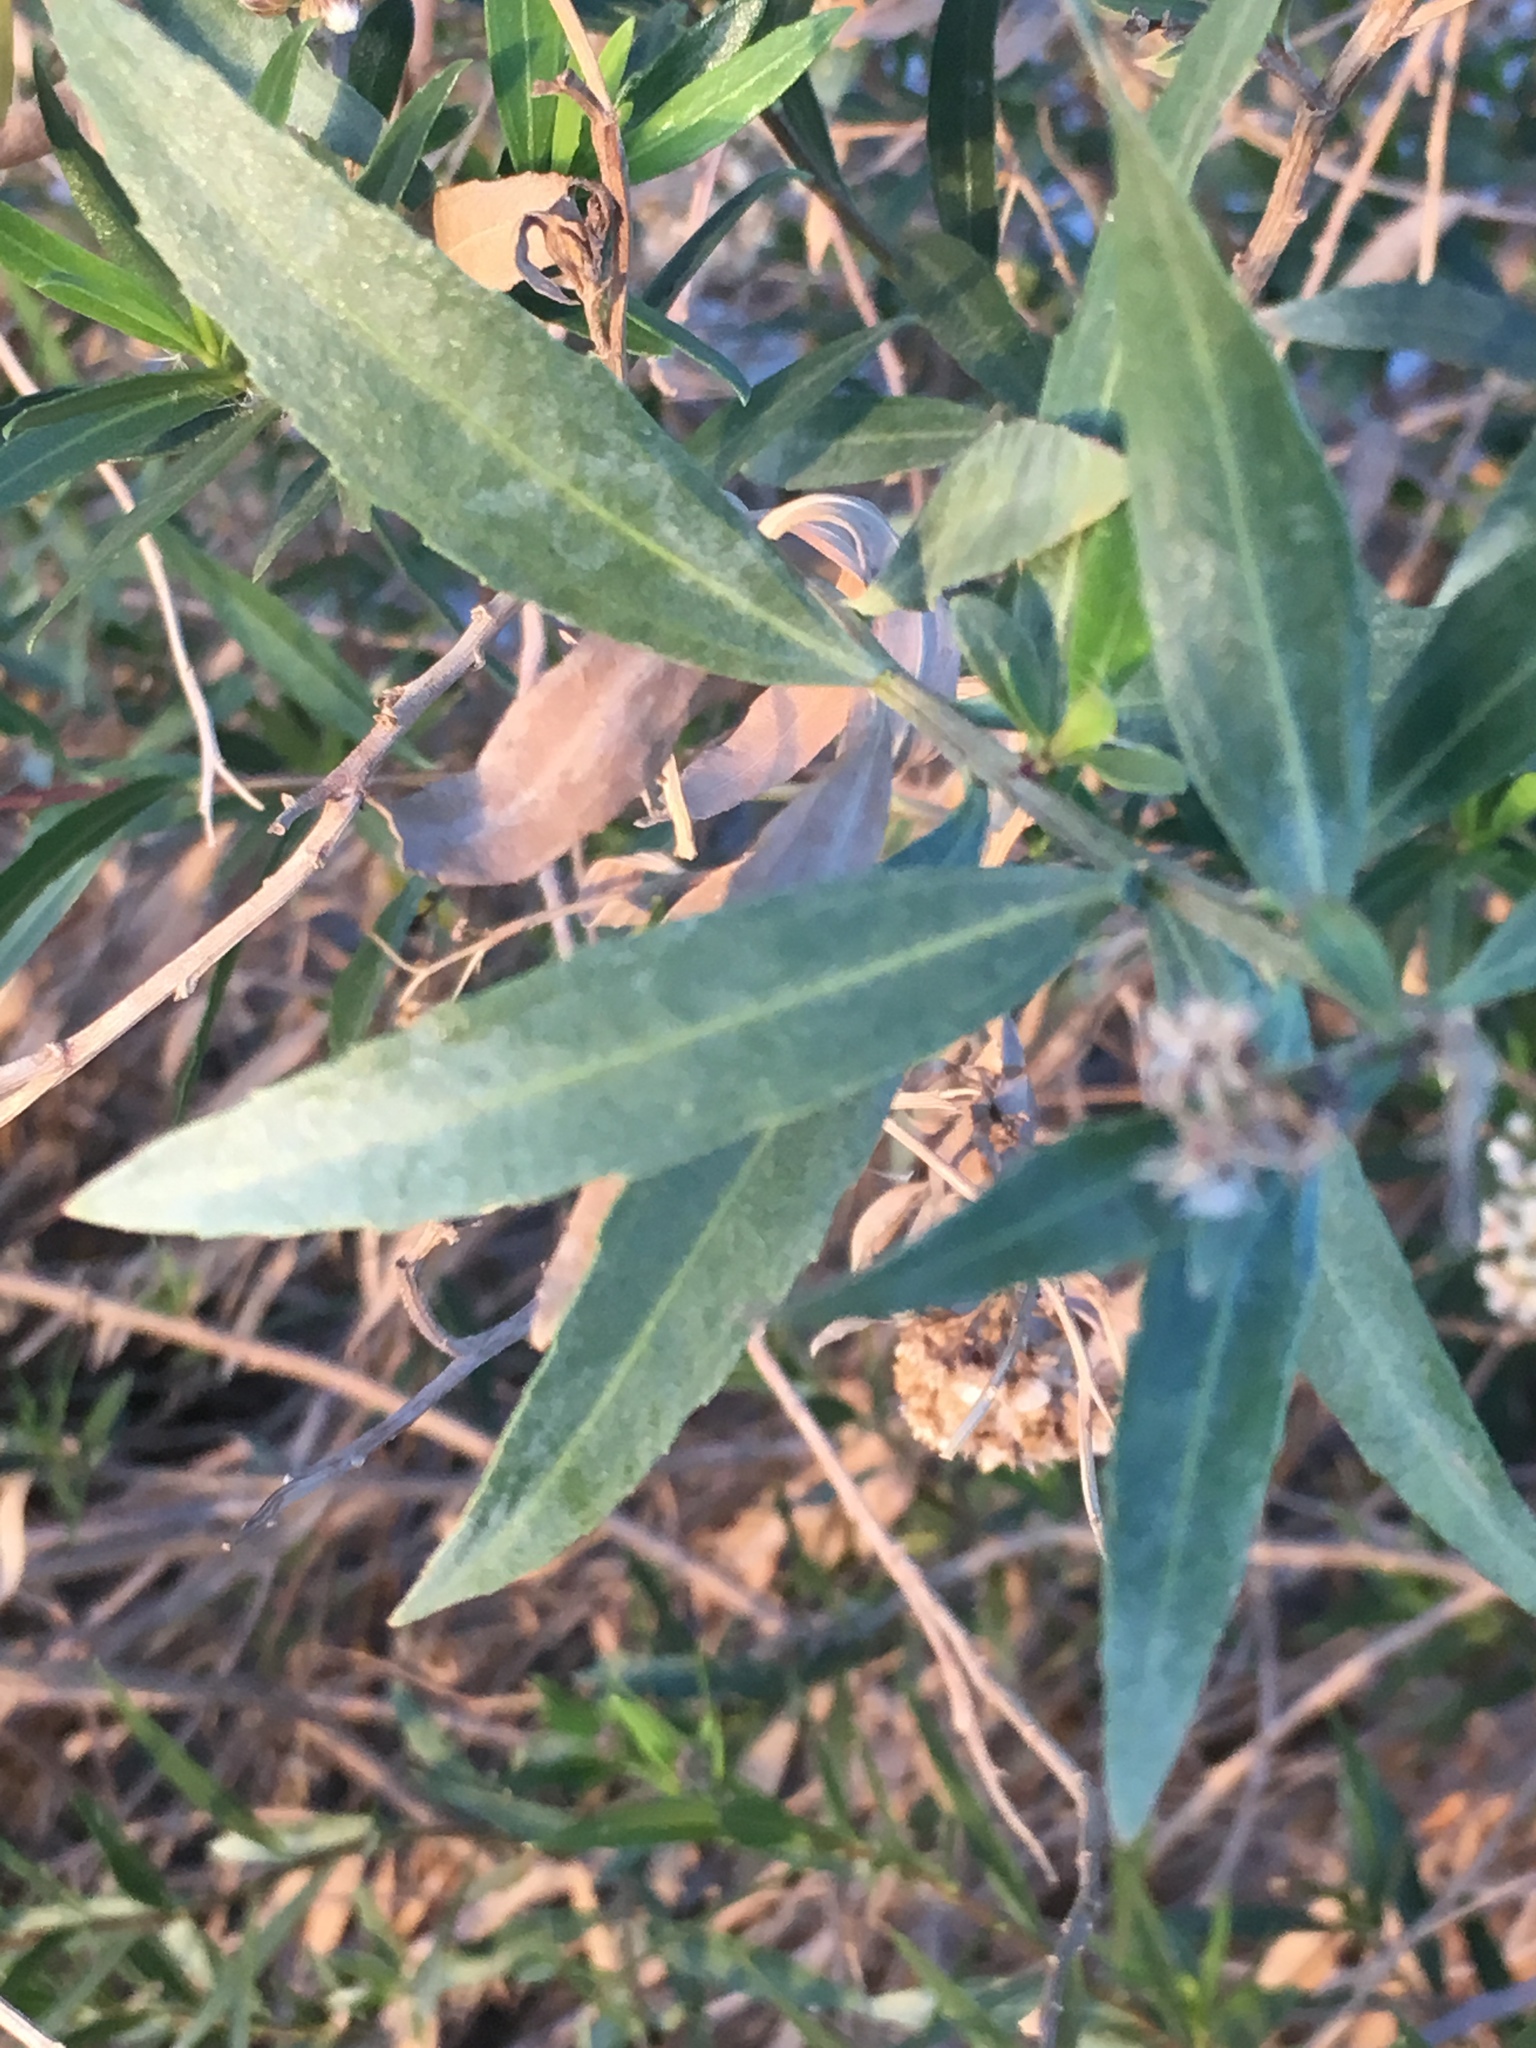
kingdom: Plantae
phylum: Tracheophyta
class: Magnoliopsida
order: Asterales
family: Asteraceae
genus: Baccharis
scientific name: Baccharis salicifolia
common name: Sticky baccharis
